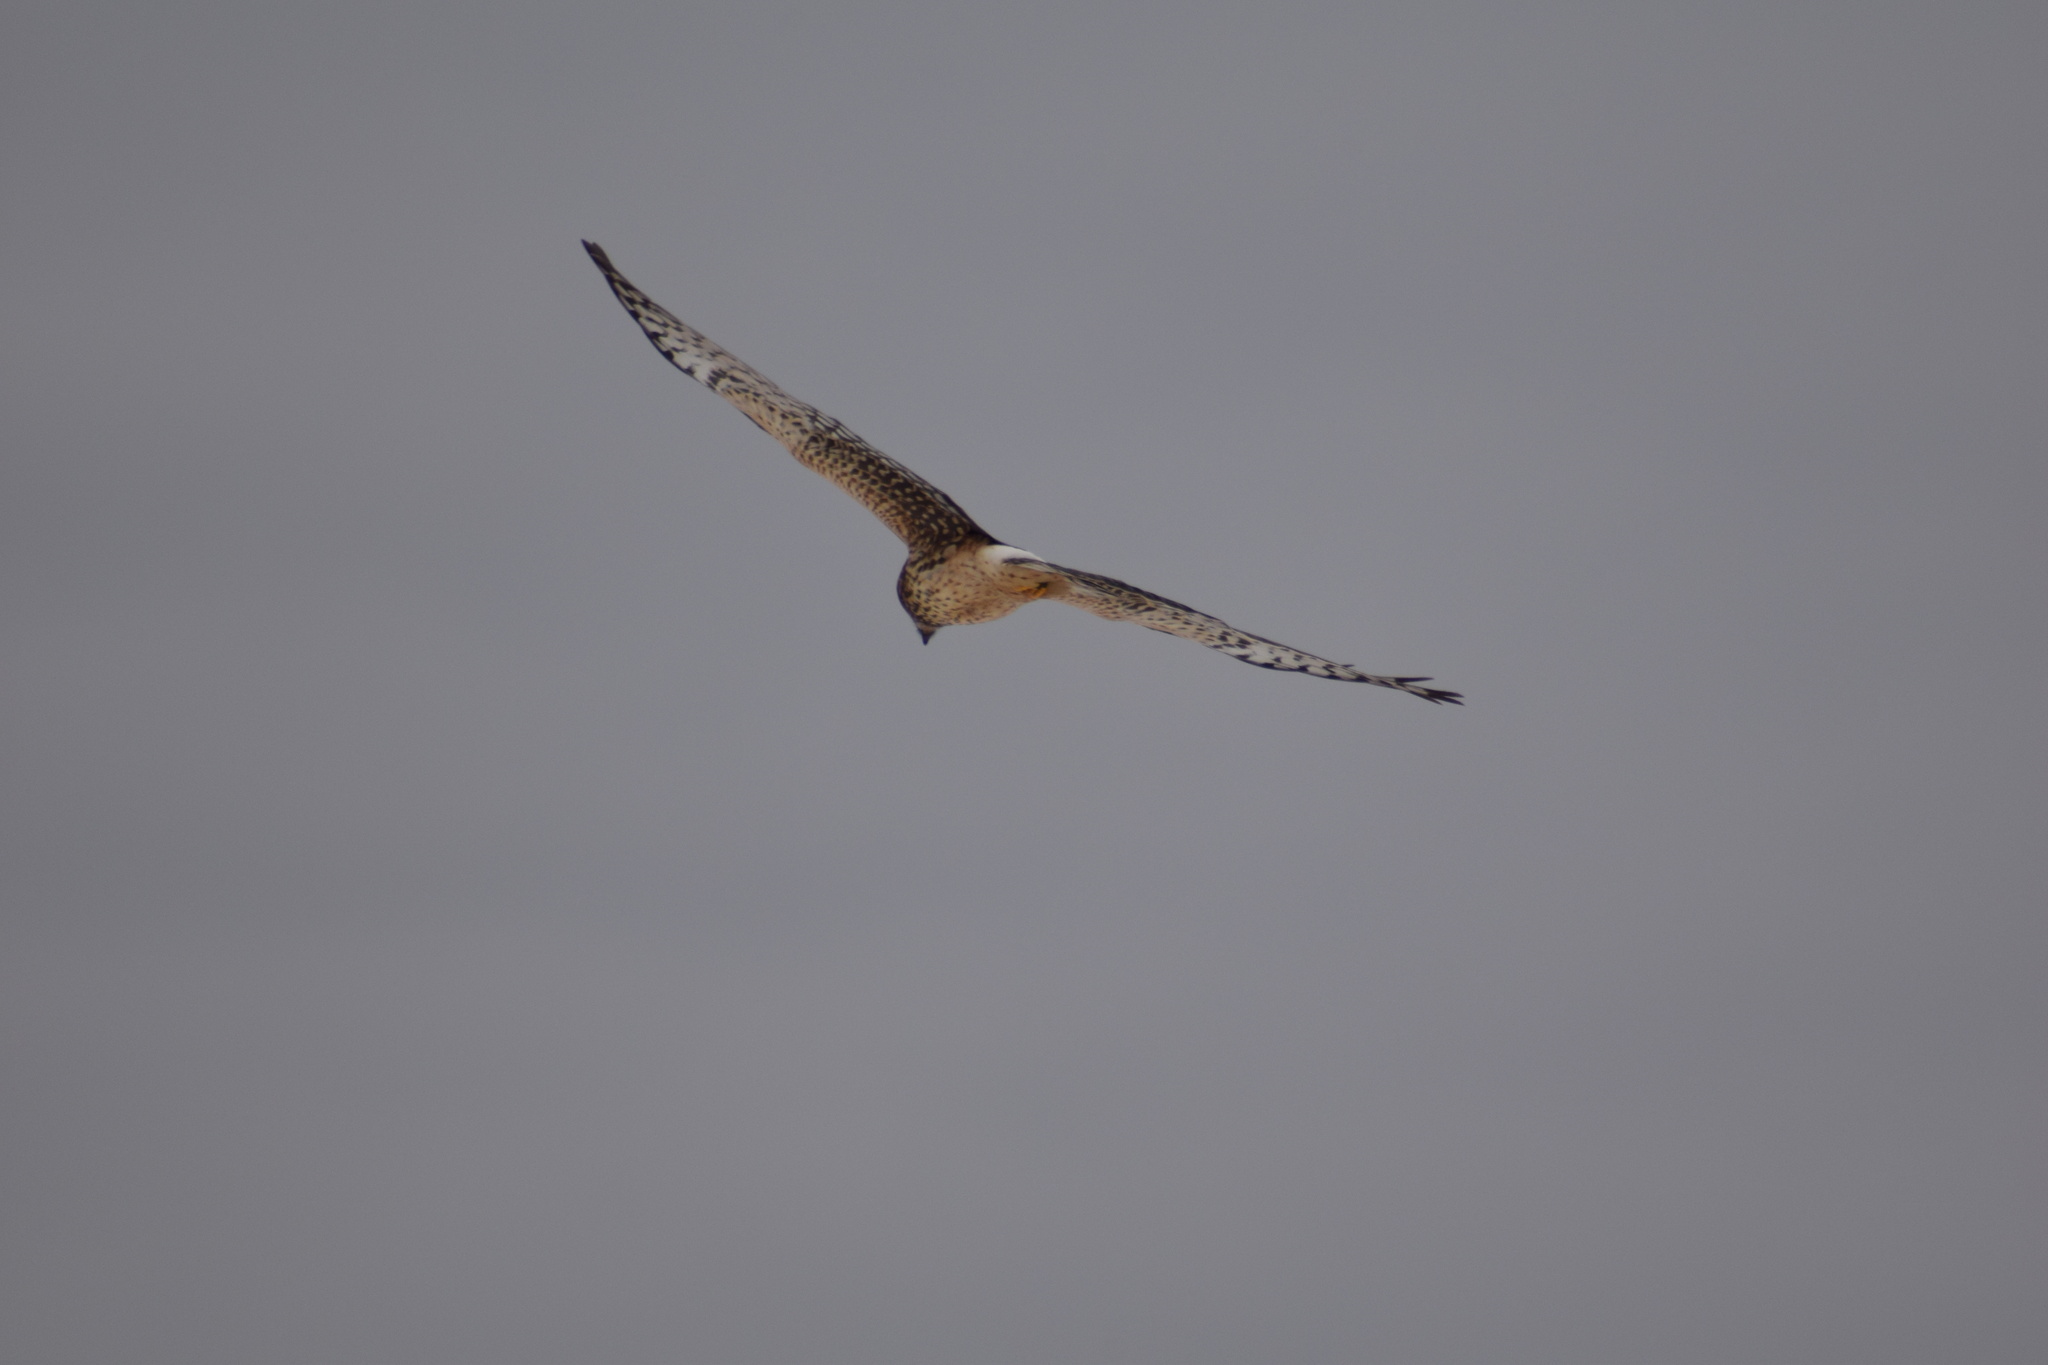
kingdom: Animalia
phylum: Chordata
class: Aves
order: Accipitriformes
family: Accipitridae
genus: Circus
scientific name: Circus cyaneus
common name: Hen harrier
